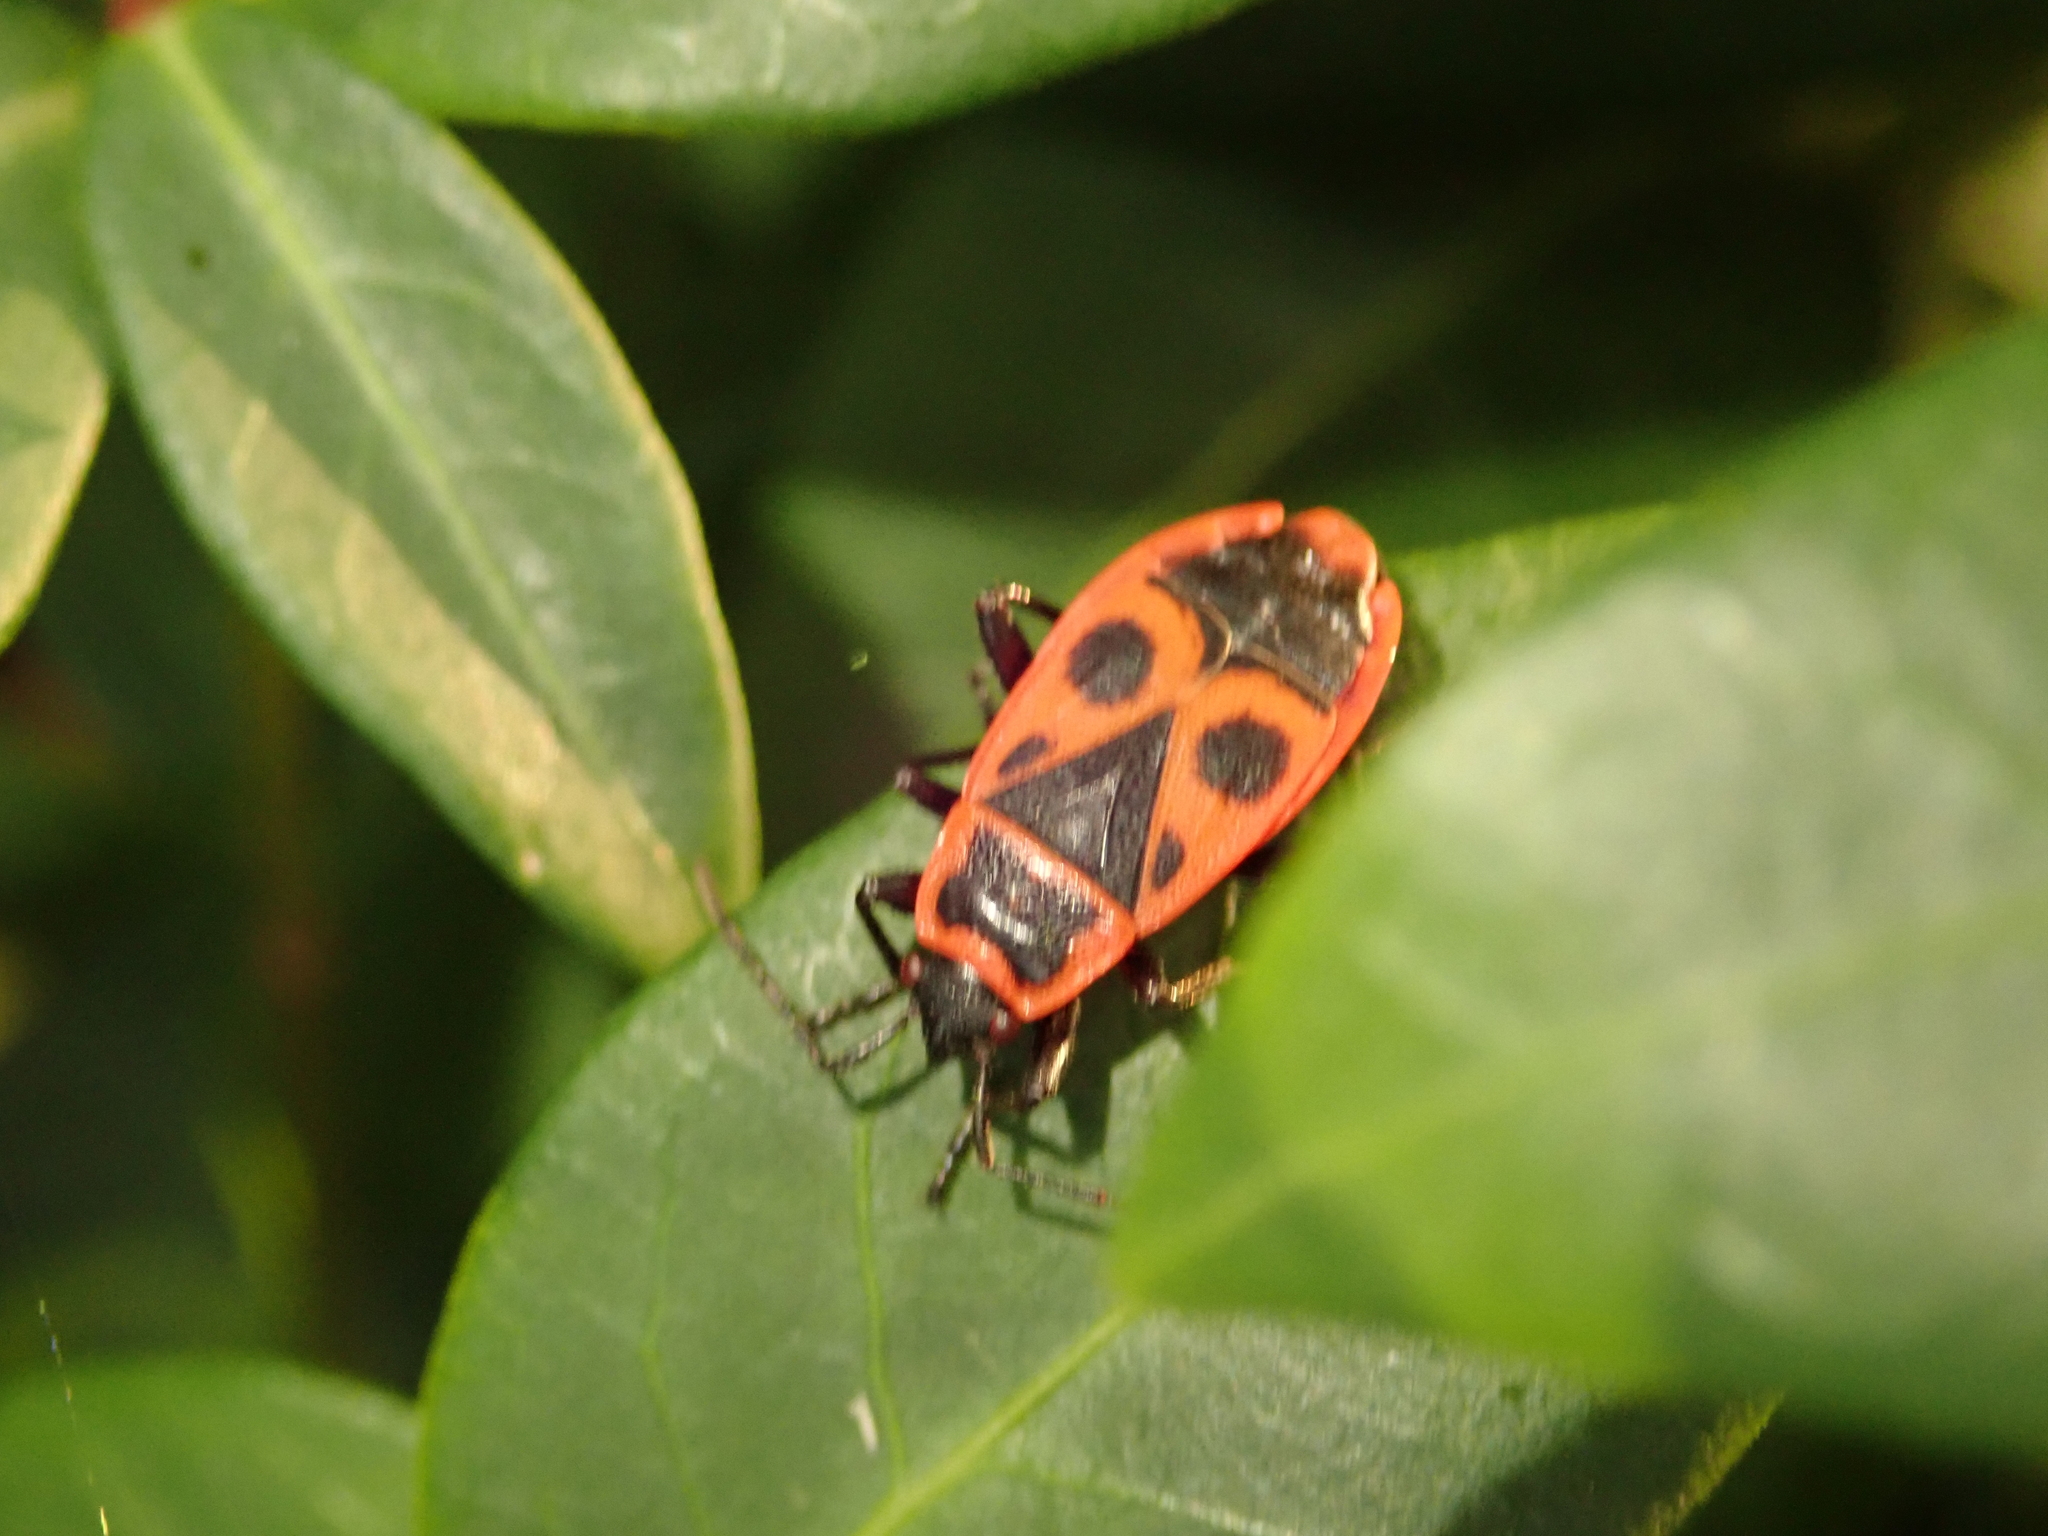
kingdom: Animalia
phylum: Arthropoda
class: Insecta
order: Hemiptera
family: Pyrrhocoridae
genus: Pyrrhocoris
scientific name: Pyrrhocoris apterus
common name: Firebug
